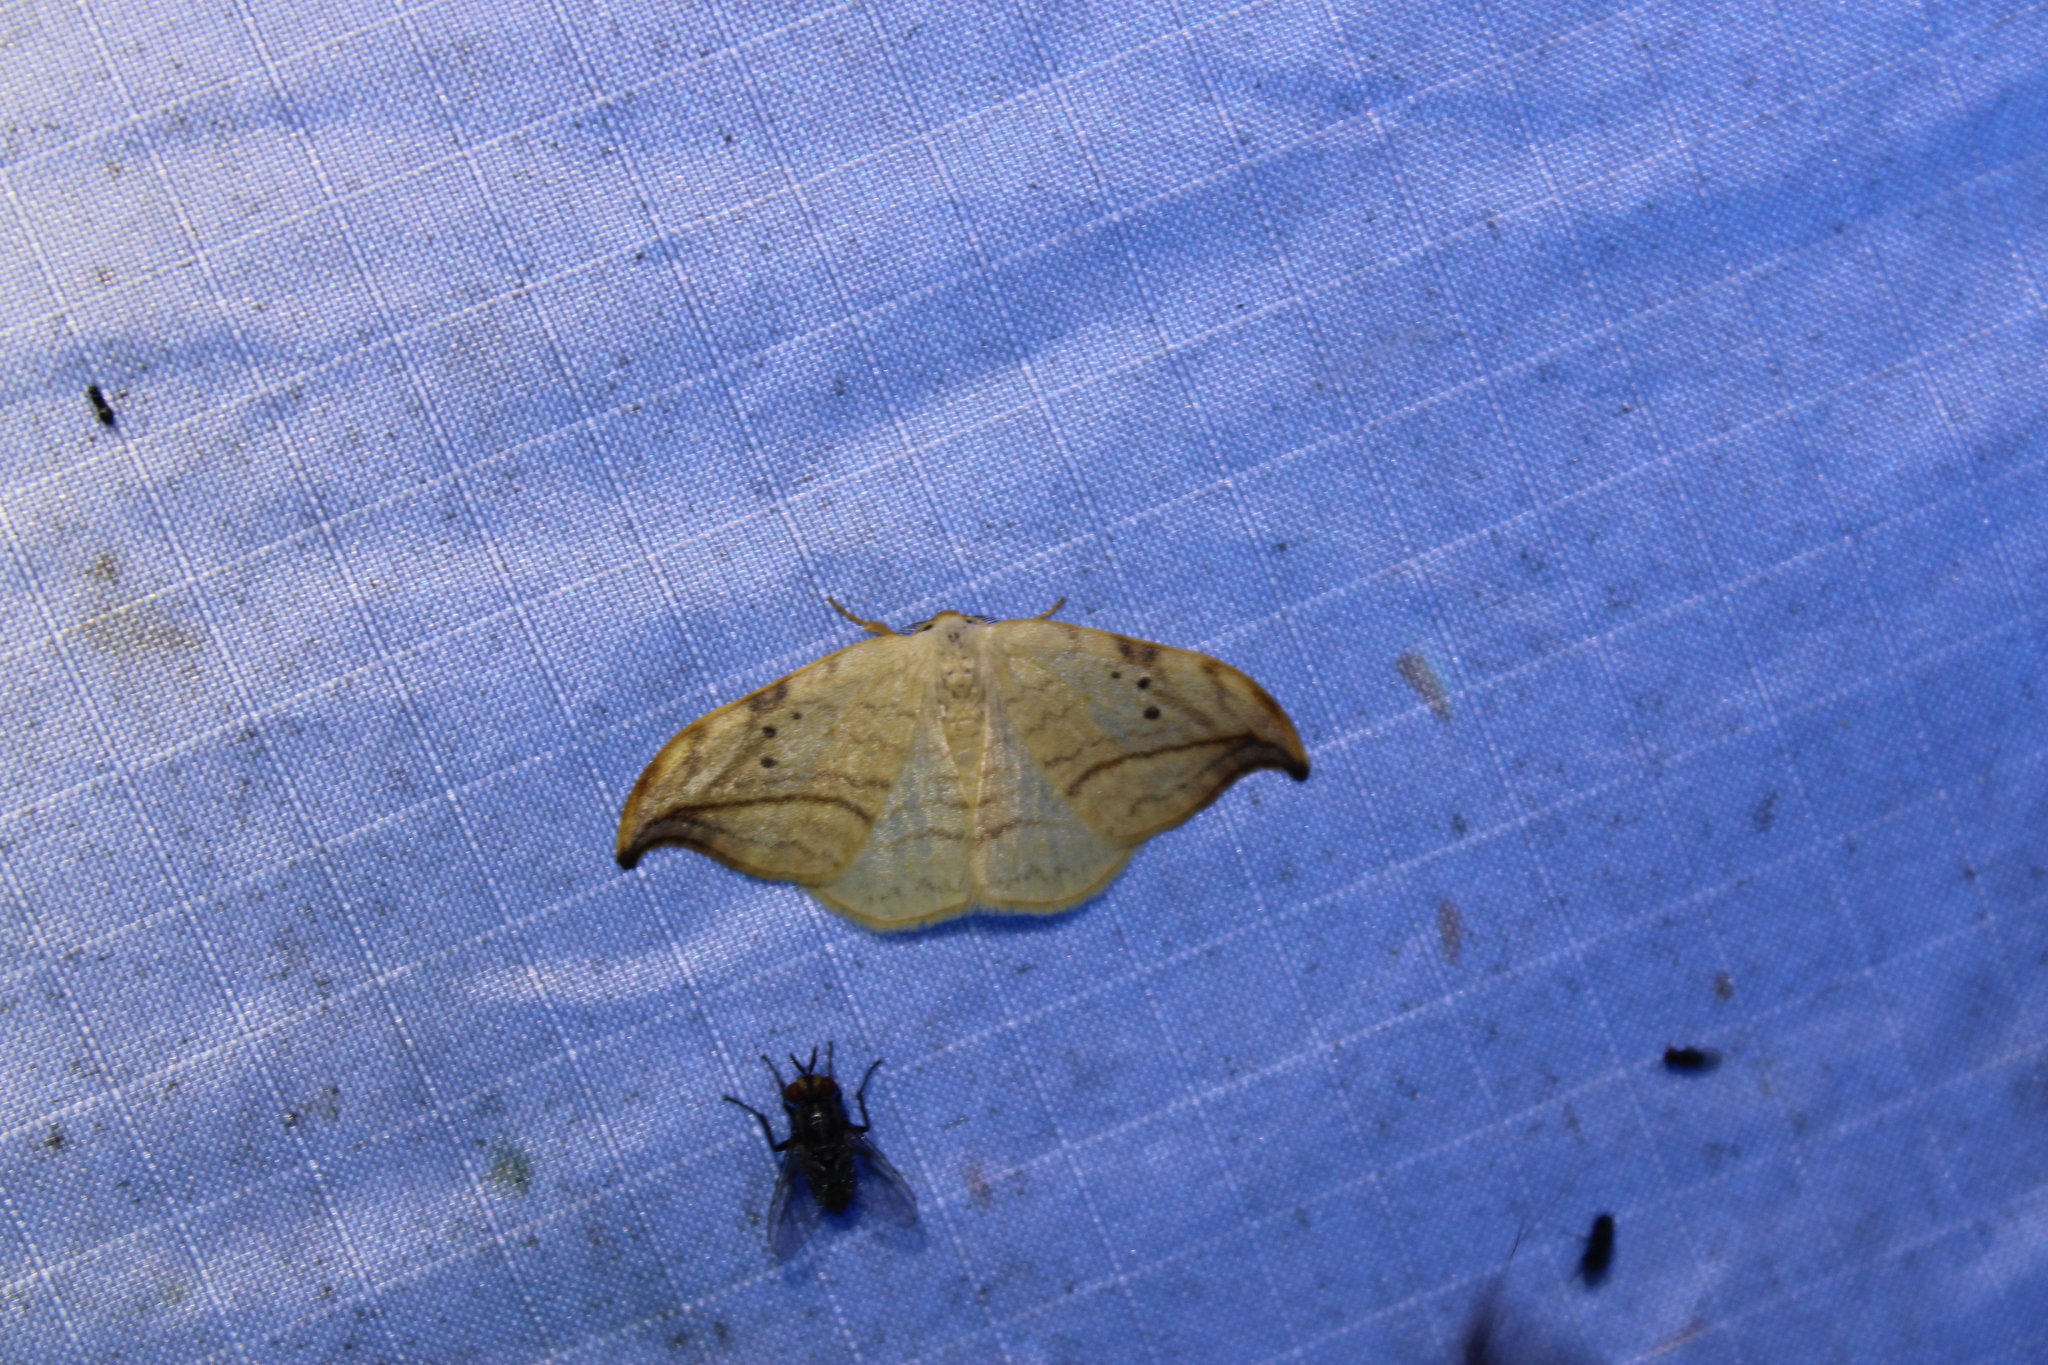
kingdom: Animalia
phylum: Arthropoda
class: Insecta
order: Lepidoptera
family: Drepanidae
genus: Drepana
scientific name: Drepana arcuata
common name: Arched hooktip moth
